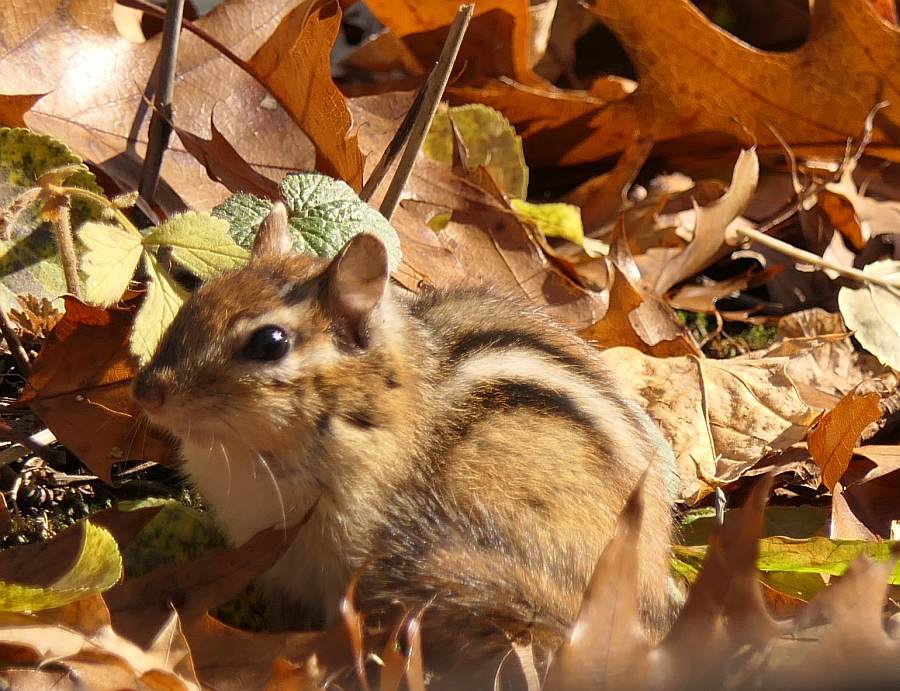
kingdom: Animalia
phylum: Chordata
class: Mammalia
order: Rodentia
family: Sciuridae
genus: Tamias
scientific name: Tamias striatus
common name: Eastern chipmunk
